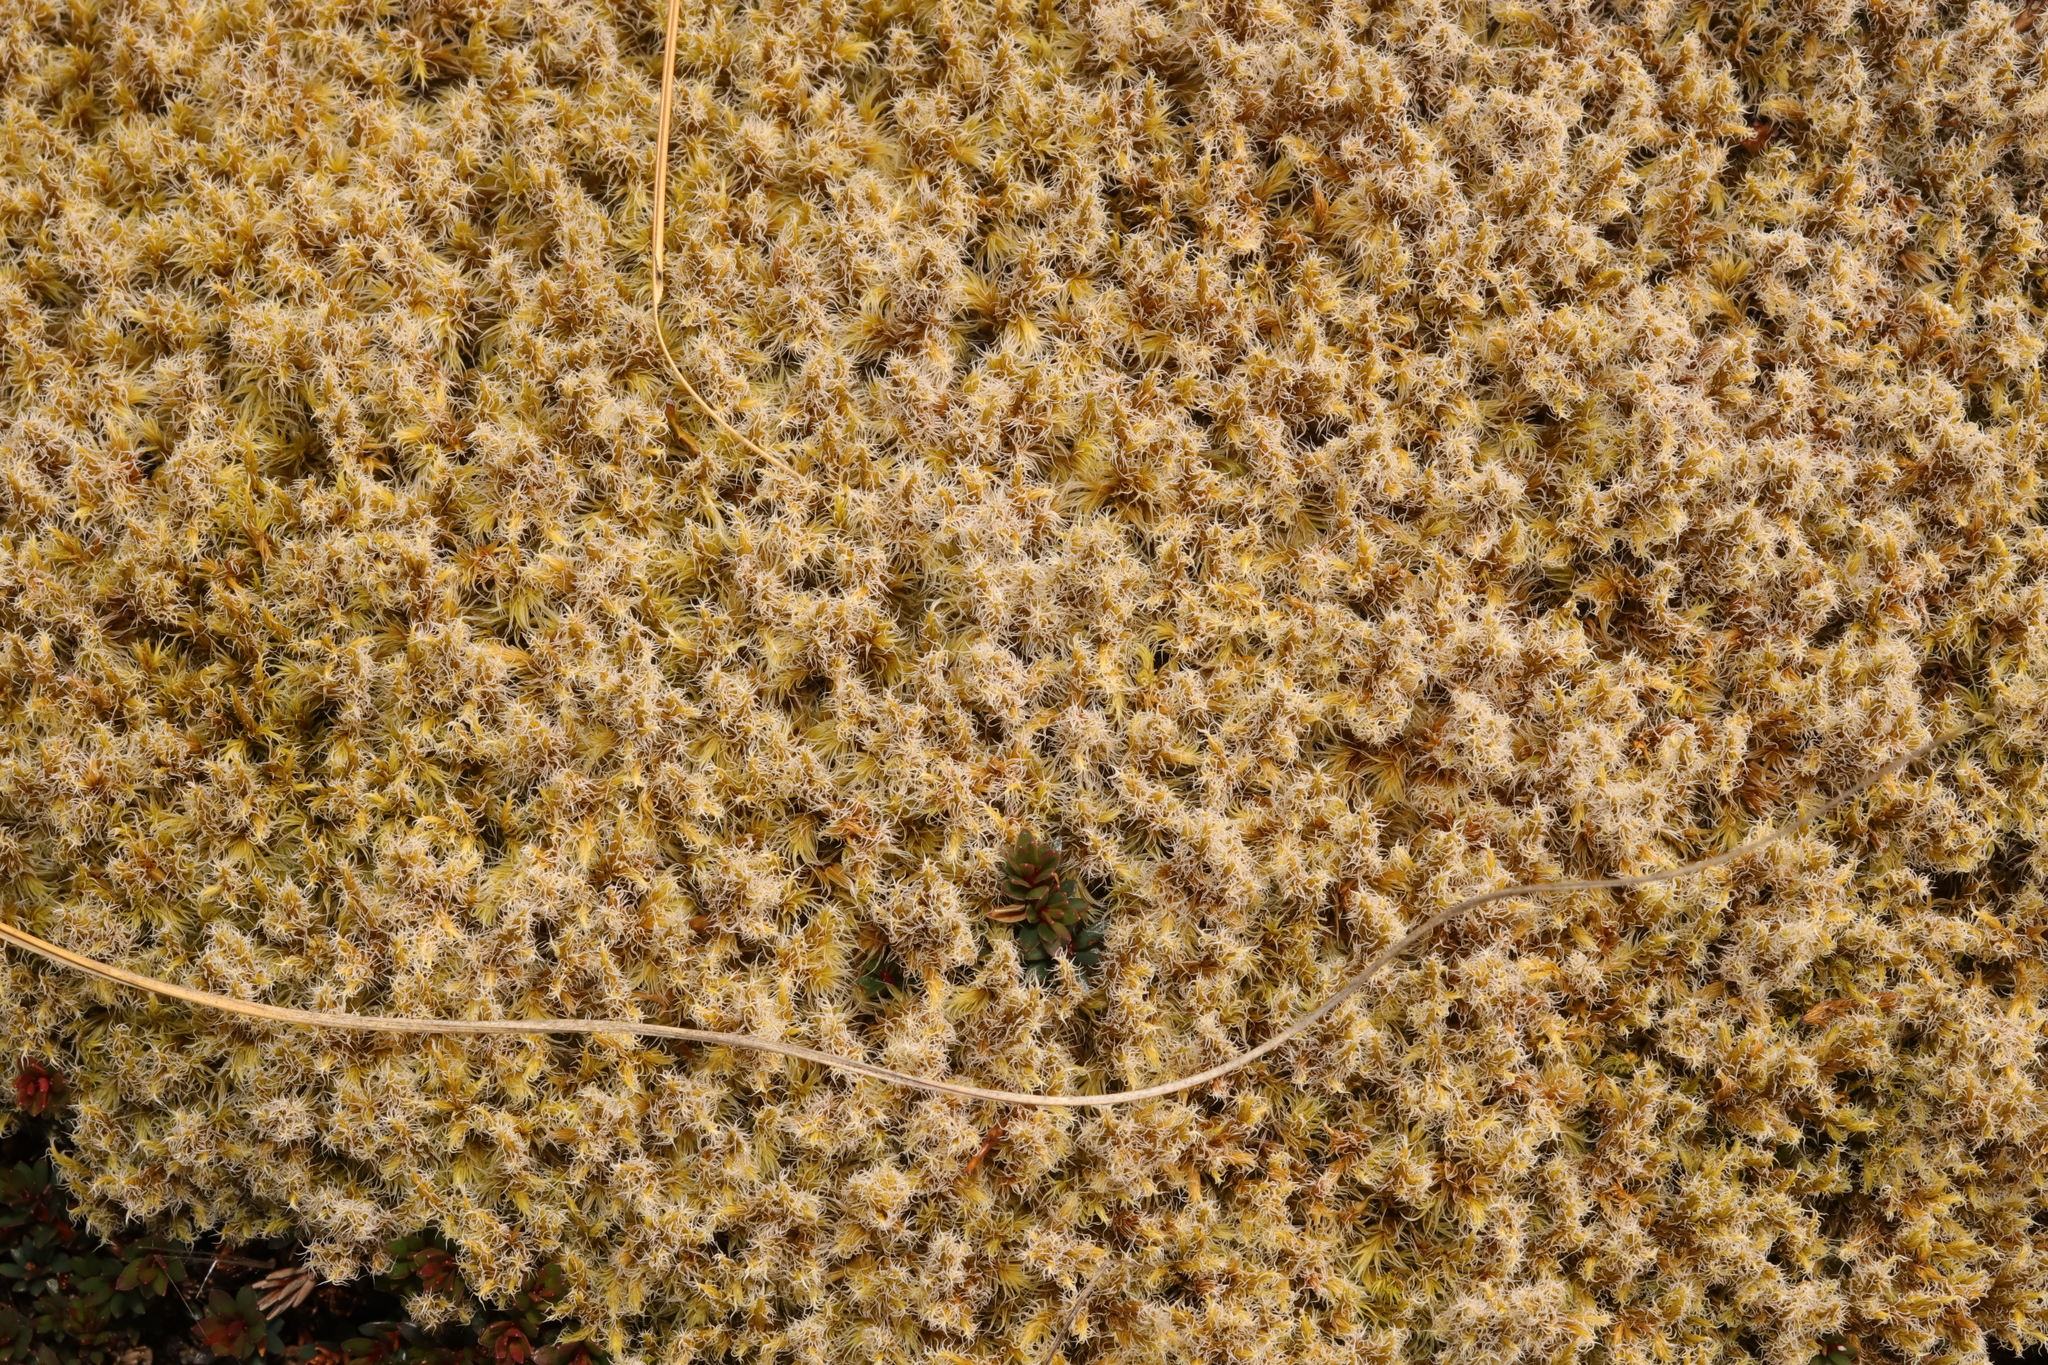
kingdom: Plantae
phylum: Bryophyta
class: Bryopsida
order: Grimmiales
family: Grimmiaceae
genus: Racomitrium
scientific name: Racomitrium lanuginosum
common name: Hoary rock moss
